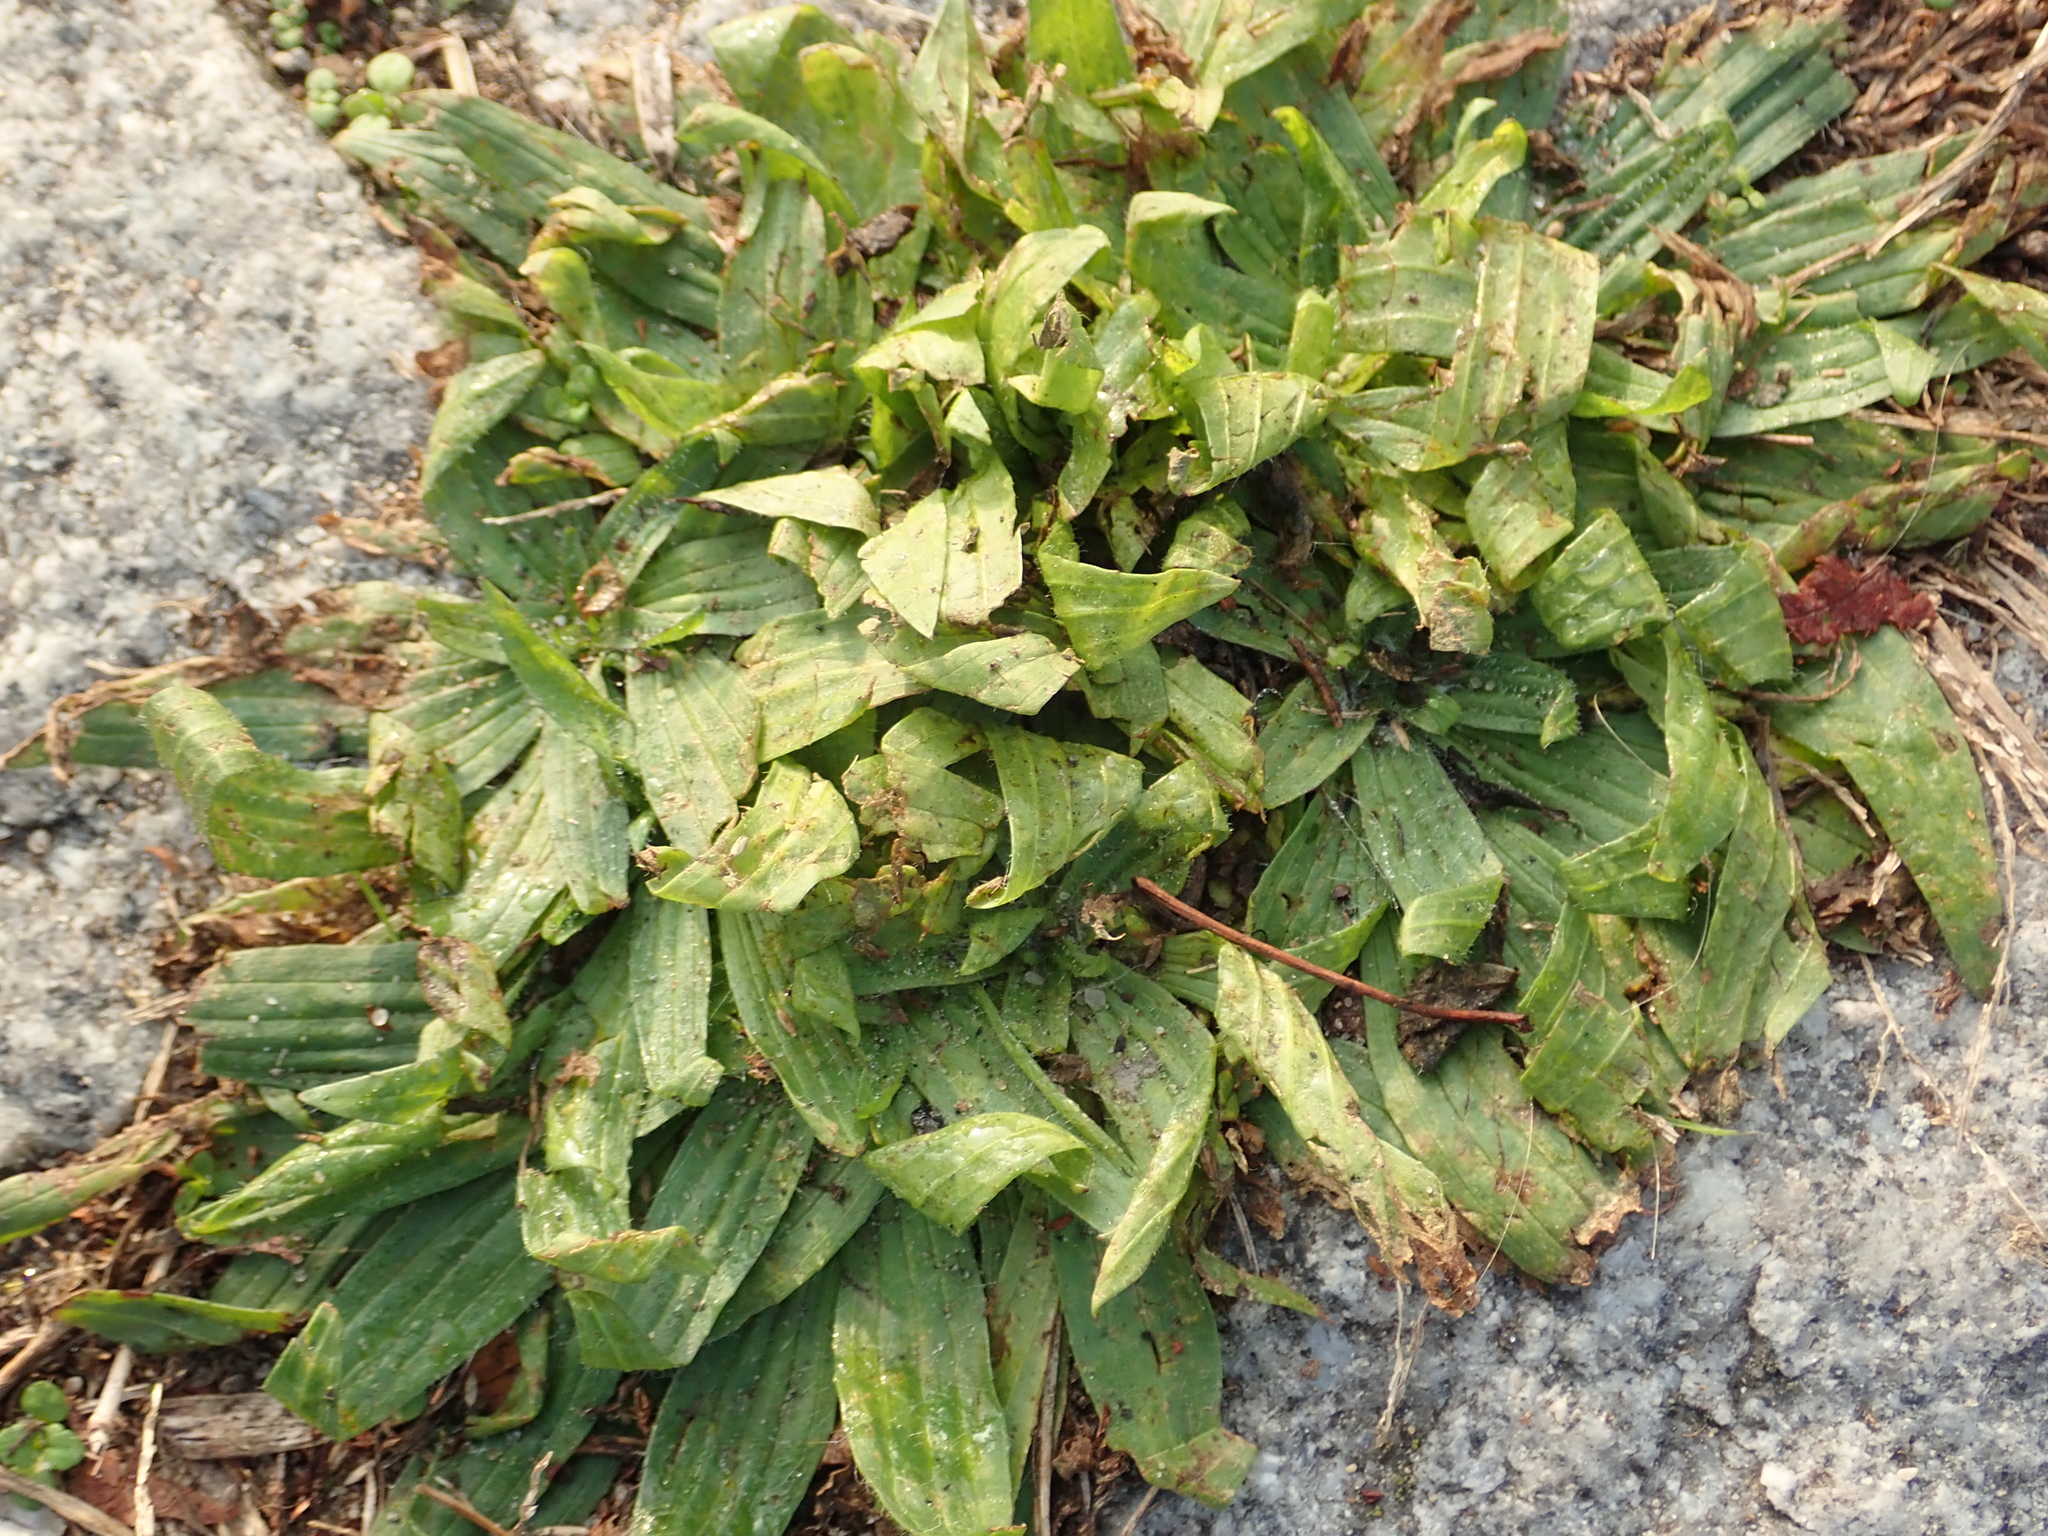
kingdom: Plantae
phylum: Tracheophyta
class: Magnoliopsida
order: Lamiales
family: Plantaginaceae
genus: Plantago
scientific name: Plantago lanceolata
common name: Ribwort plantain
